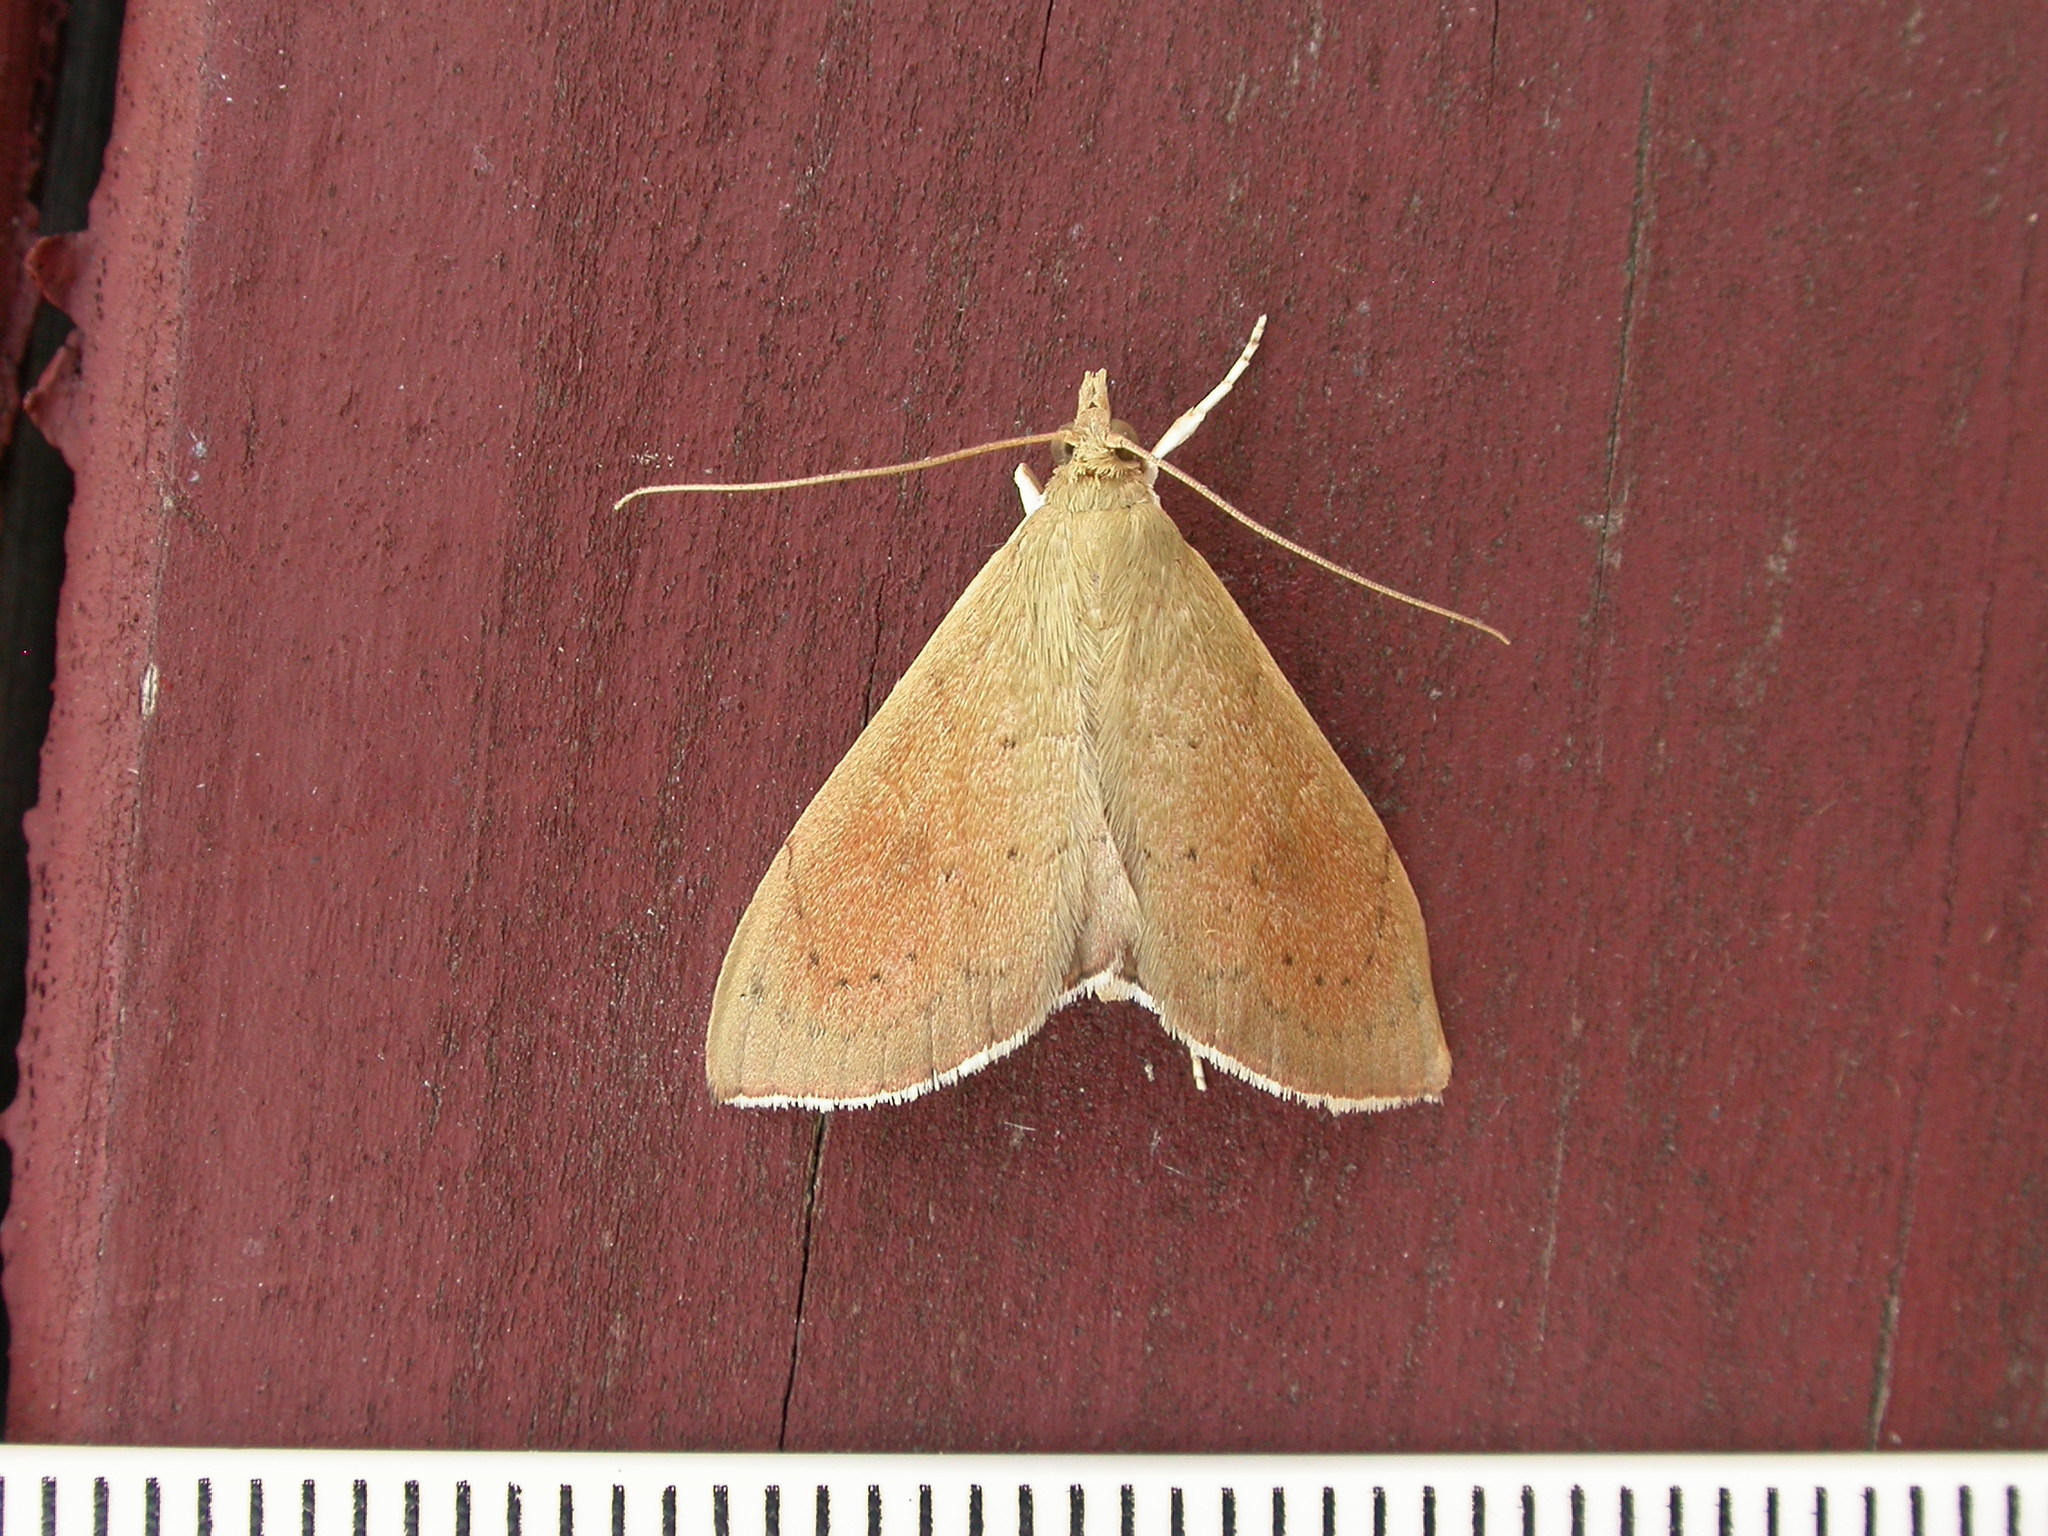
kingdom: Animalia
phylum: Arthropoda
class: Insecta
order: Lepidoptera
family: Crambidae
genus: Hyalobathra
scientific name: Hyalobathra archeleuca
